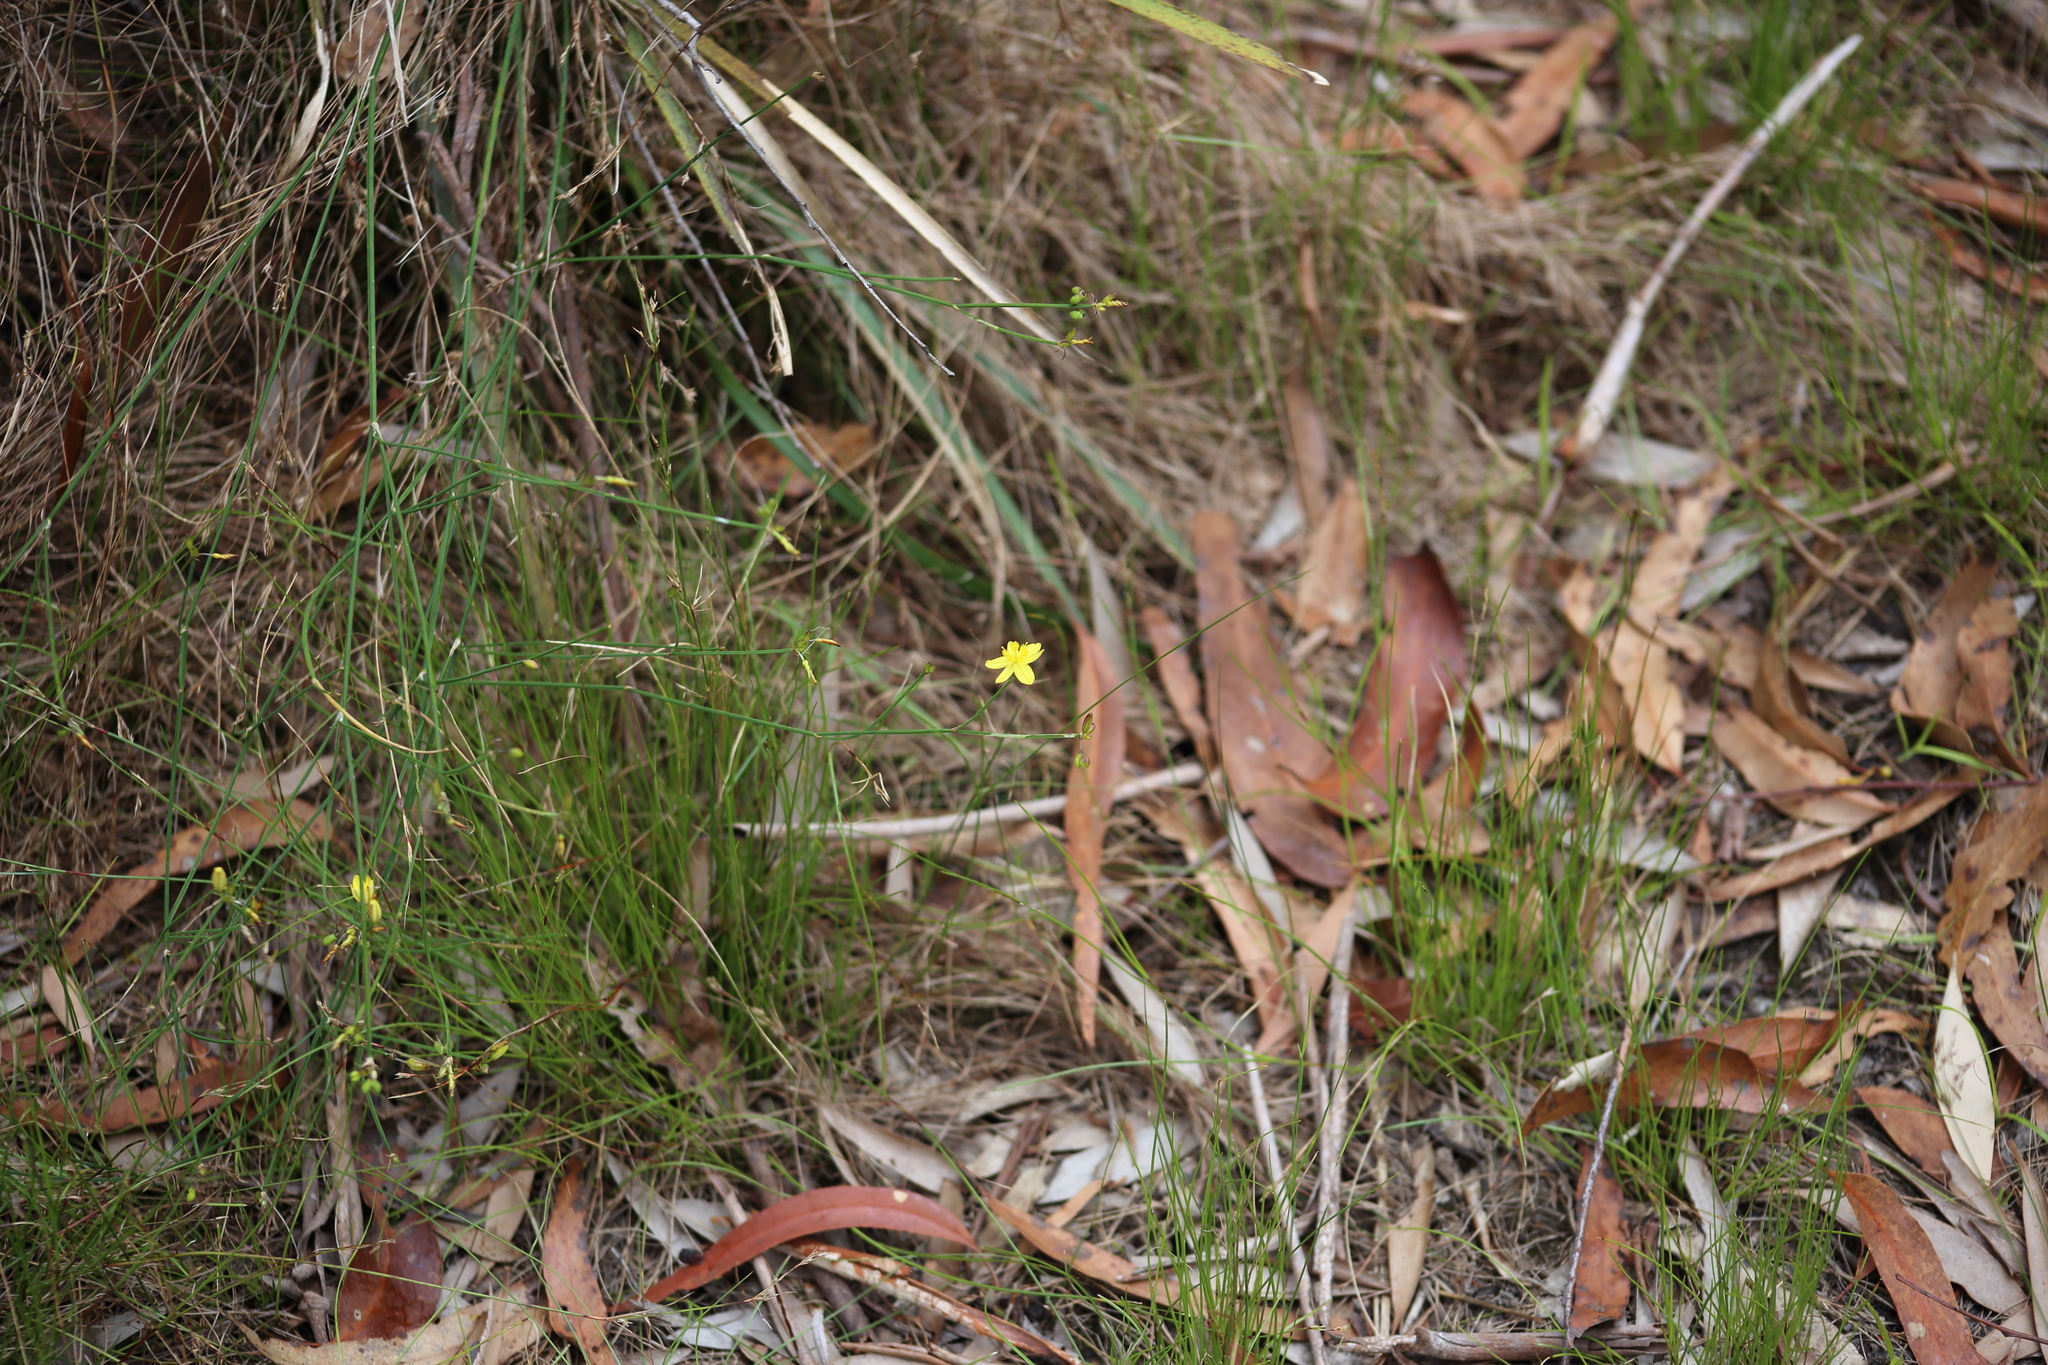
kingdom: Plantae
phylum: Tracheophyta
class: Liliopsida
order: Asparagales
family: Asphodelaceae
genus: Tricoryne
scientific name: Tricoryne elatior
